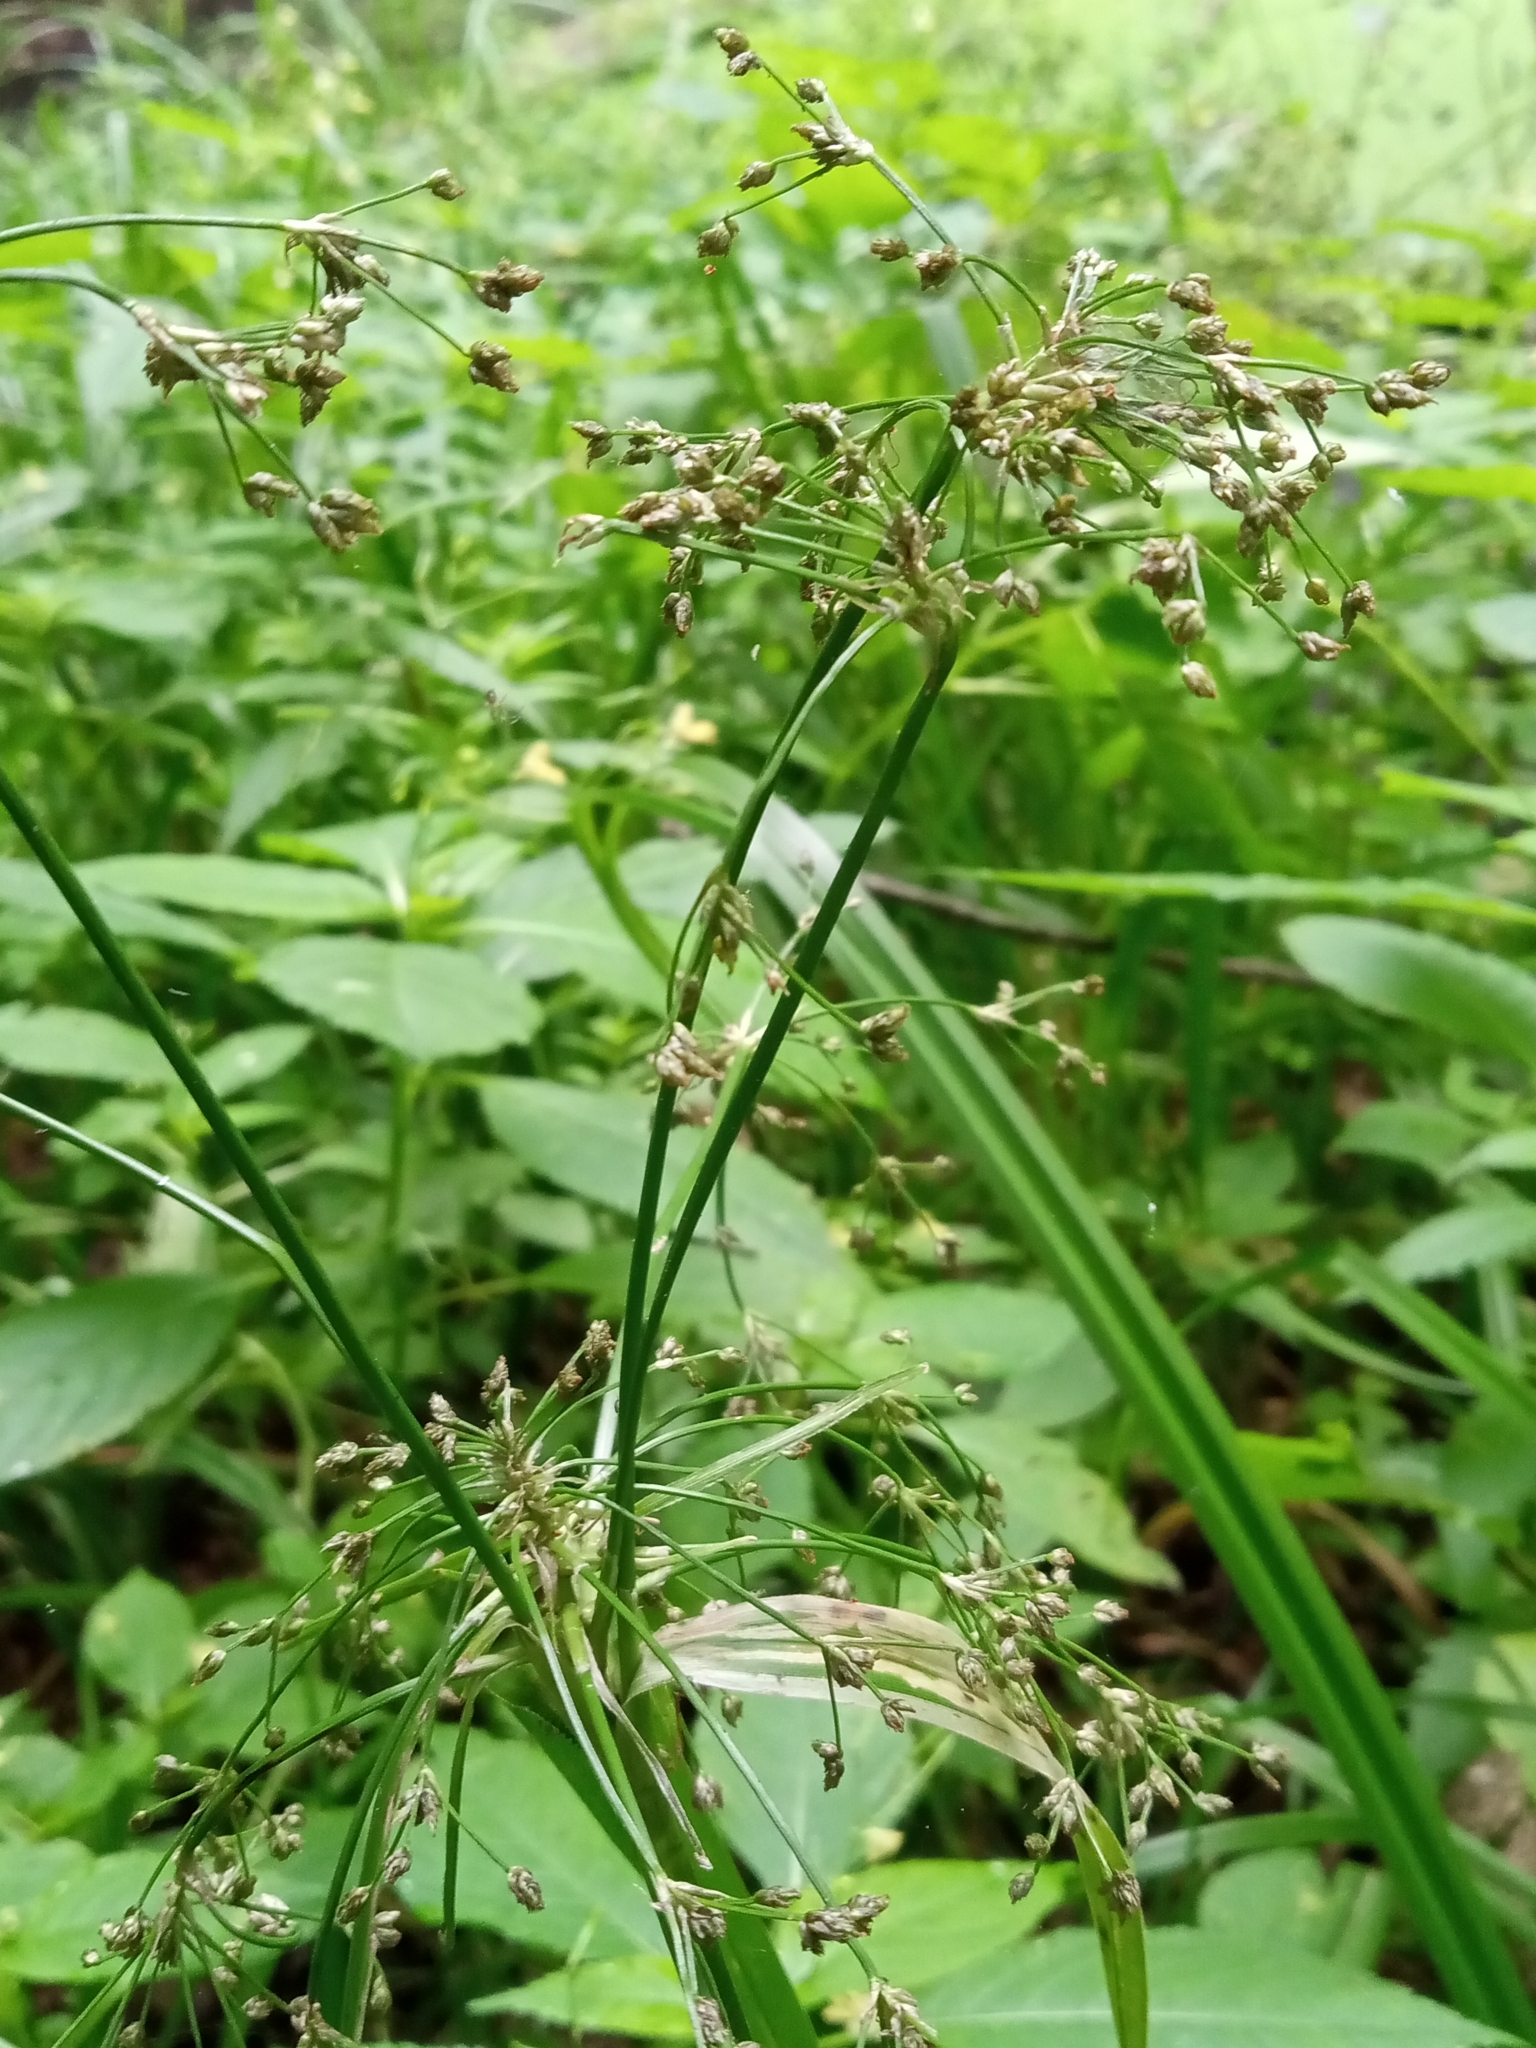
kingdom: Plantae
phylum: Tracheophyta
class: Liliopsida
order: Poales
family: Cyperaceae
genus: Scirpus
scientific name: Scirpus sylvaticus
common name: Wood club-rush
